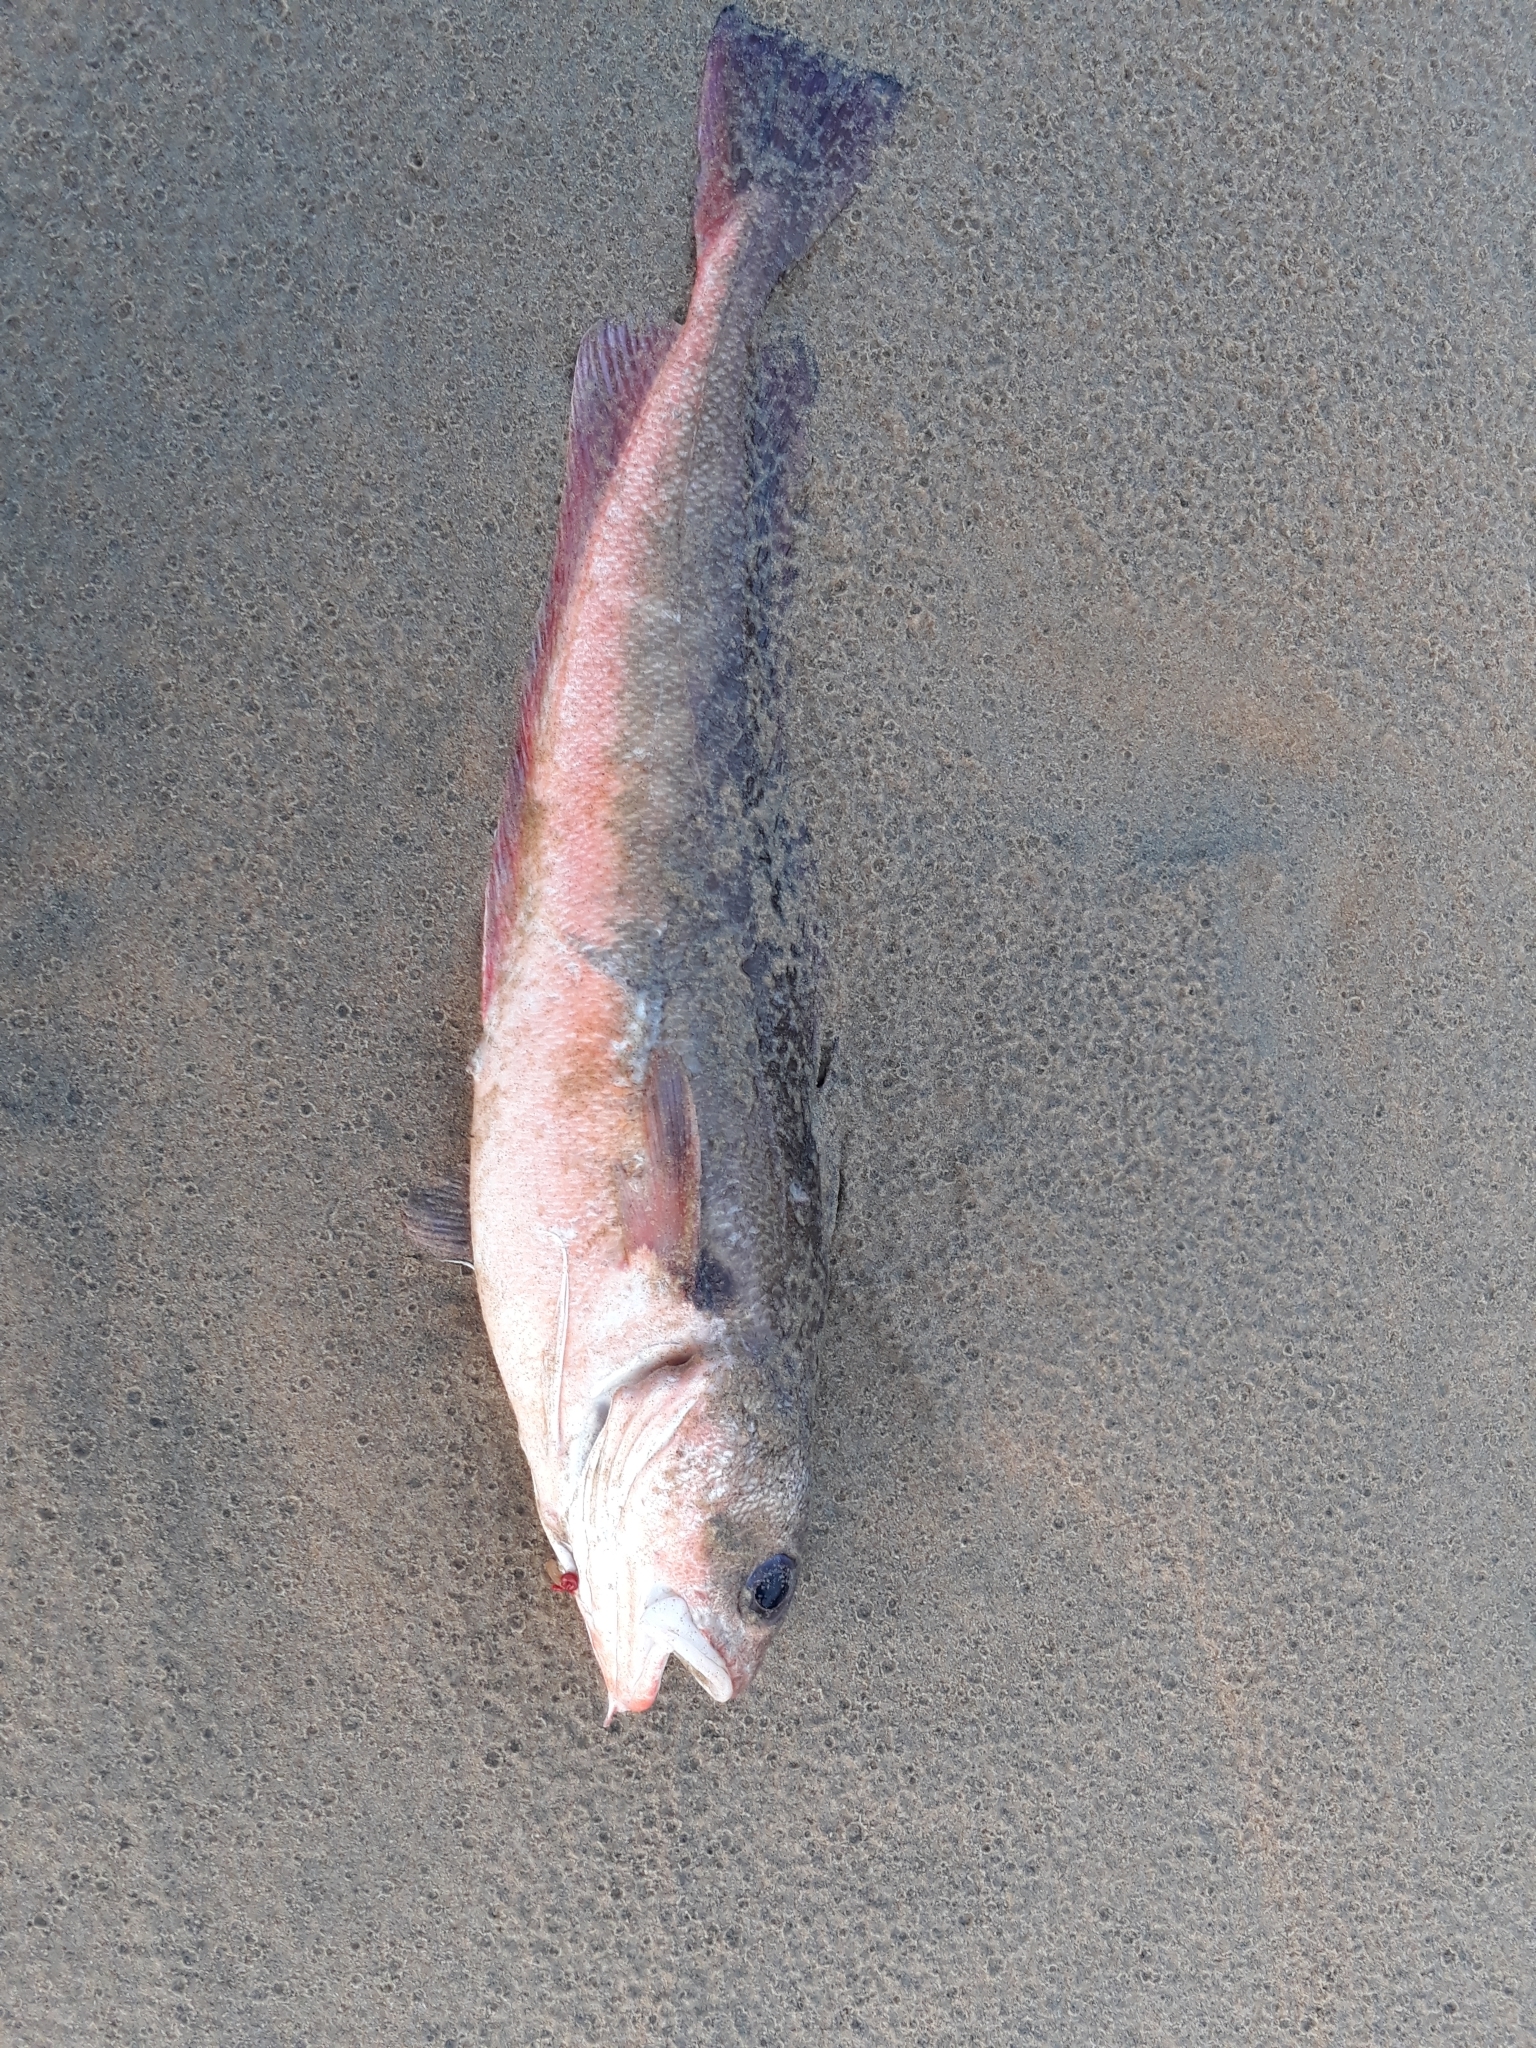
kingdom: Animalia
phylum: Chordata
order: Gadiformes
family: Moridae
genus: Pseudophycis
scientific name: Pseudophycis bachus
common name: Red cod
